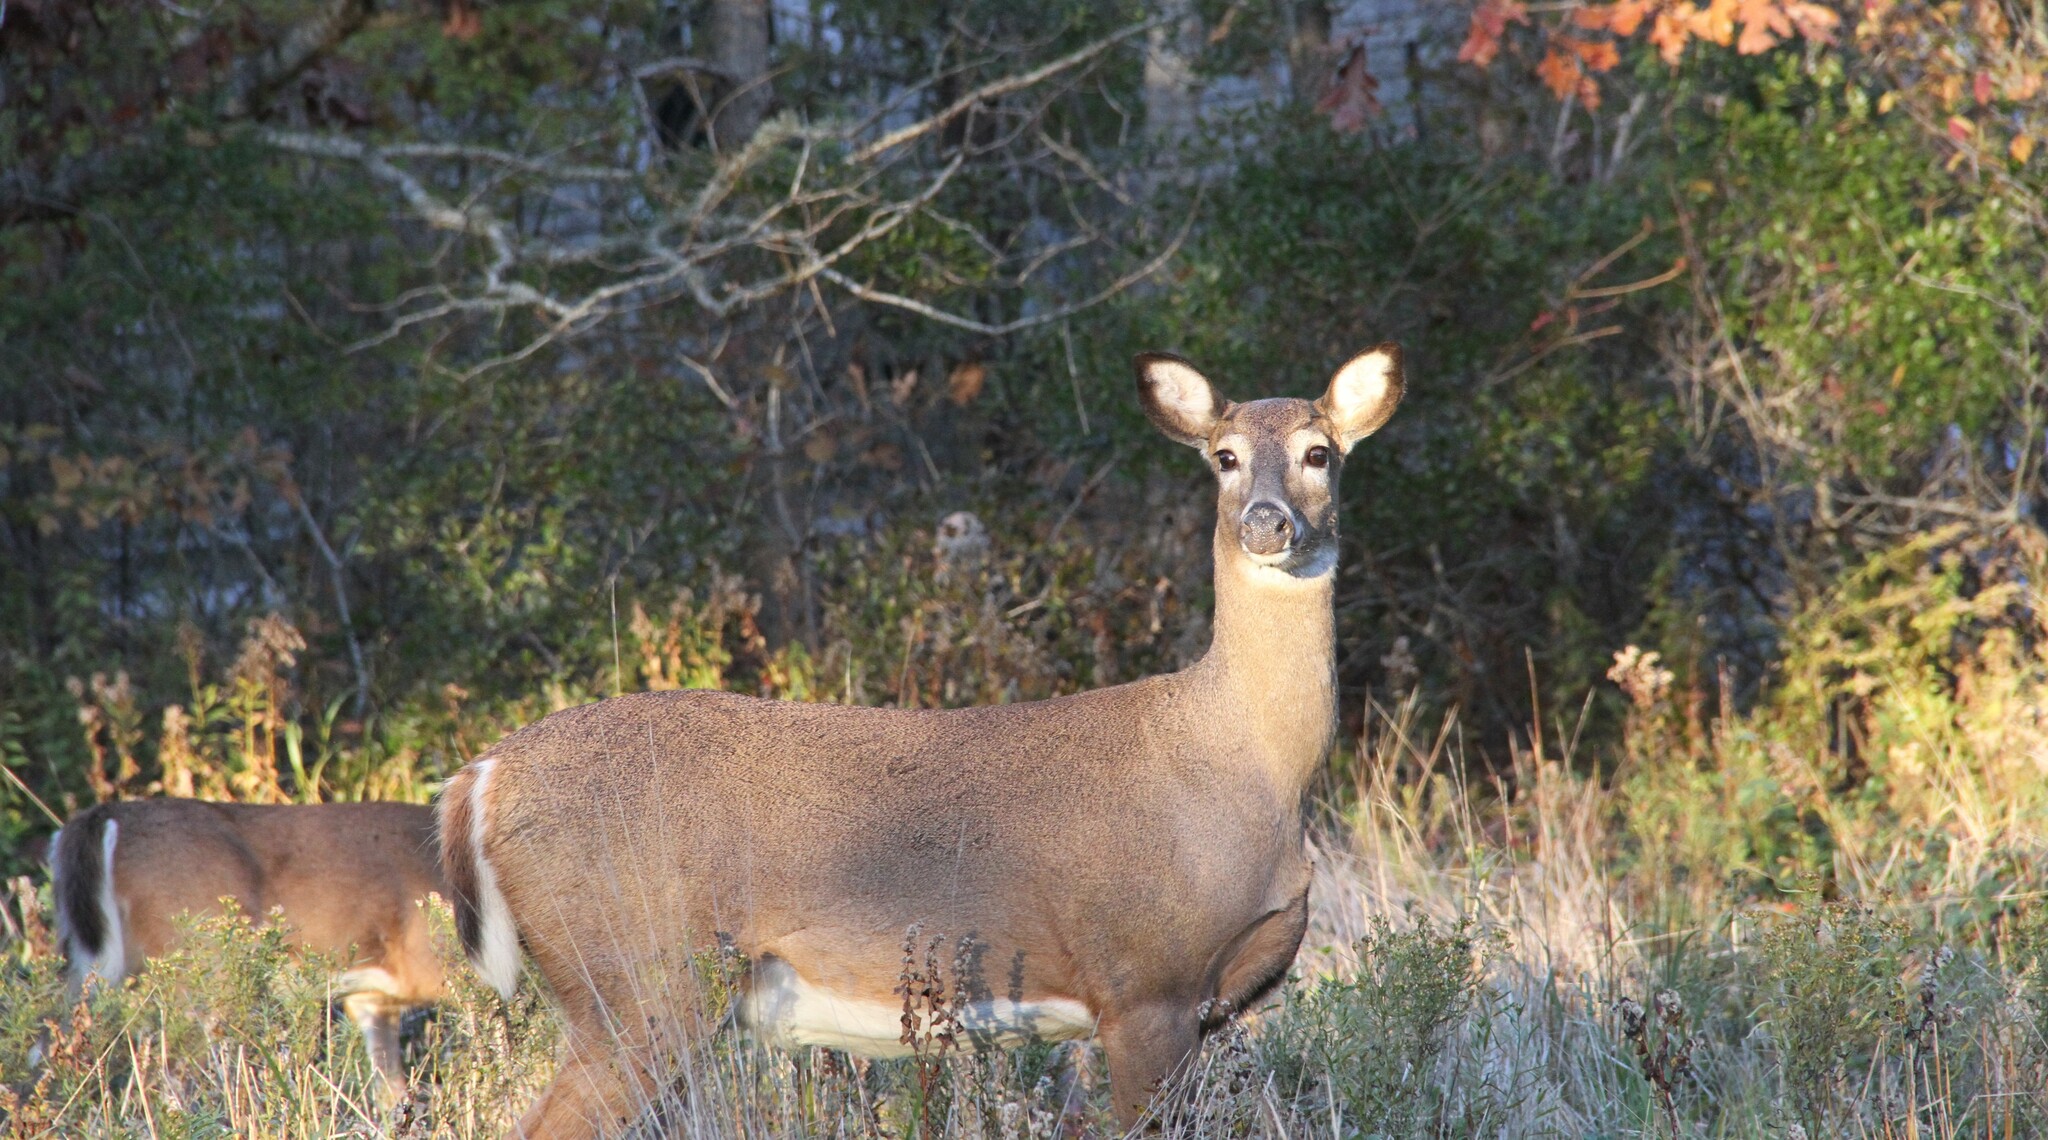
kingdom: Animalia
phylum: Chordata
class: Mammalia
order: Artiodactyla
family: Cervidae
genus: Odocoileus
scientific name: Odocoileus virginianus
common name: White-tailed deer
